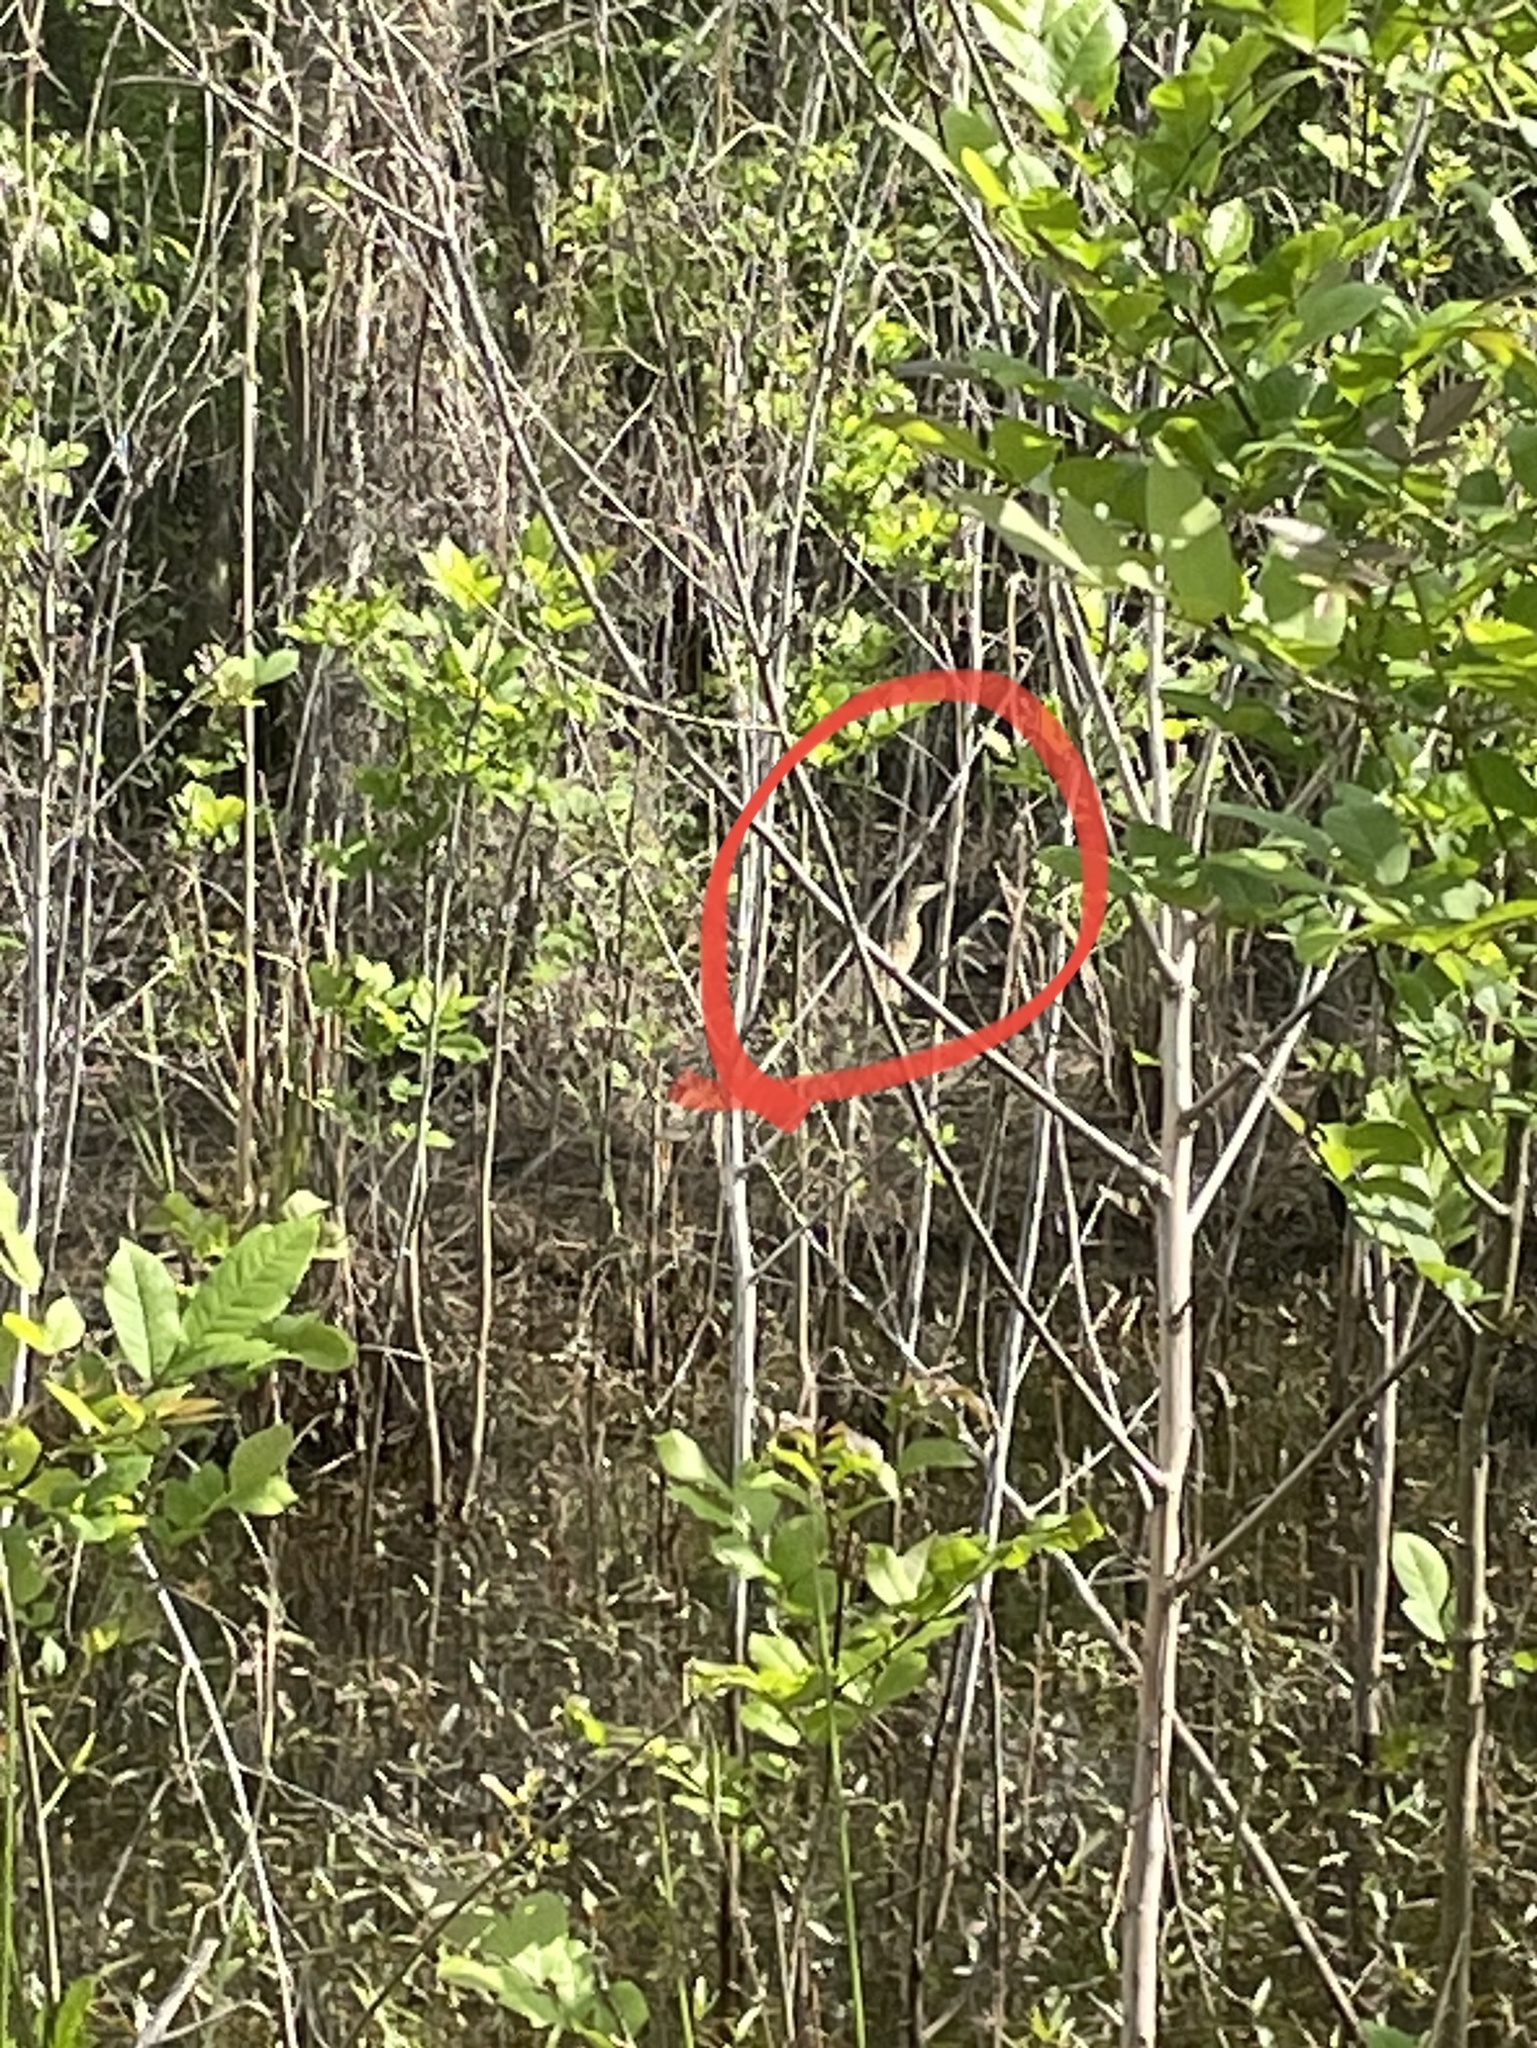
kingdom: Animalia
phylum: Chordata
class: Aves
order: Pelecaniformes
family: Ardeidae
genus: Botaurus
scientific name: Botaurus lentiginosus
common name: American bittern
